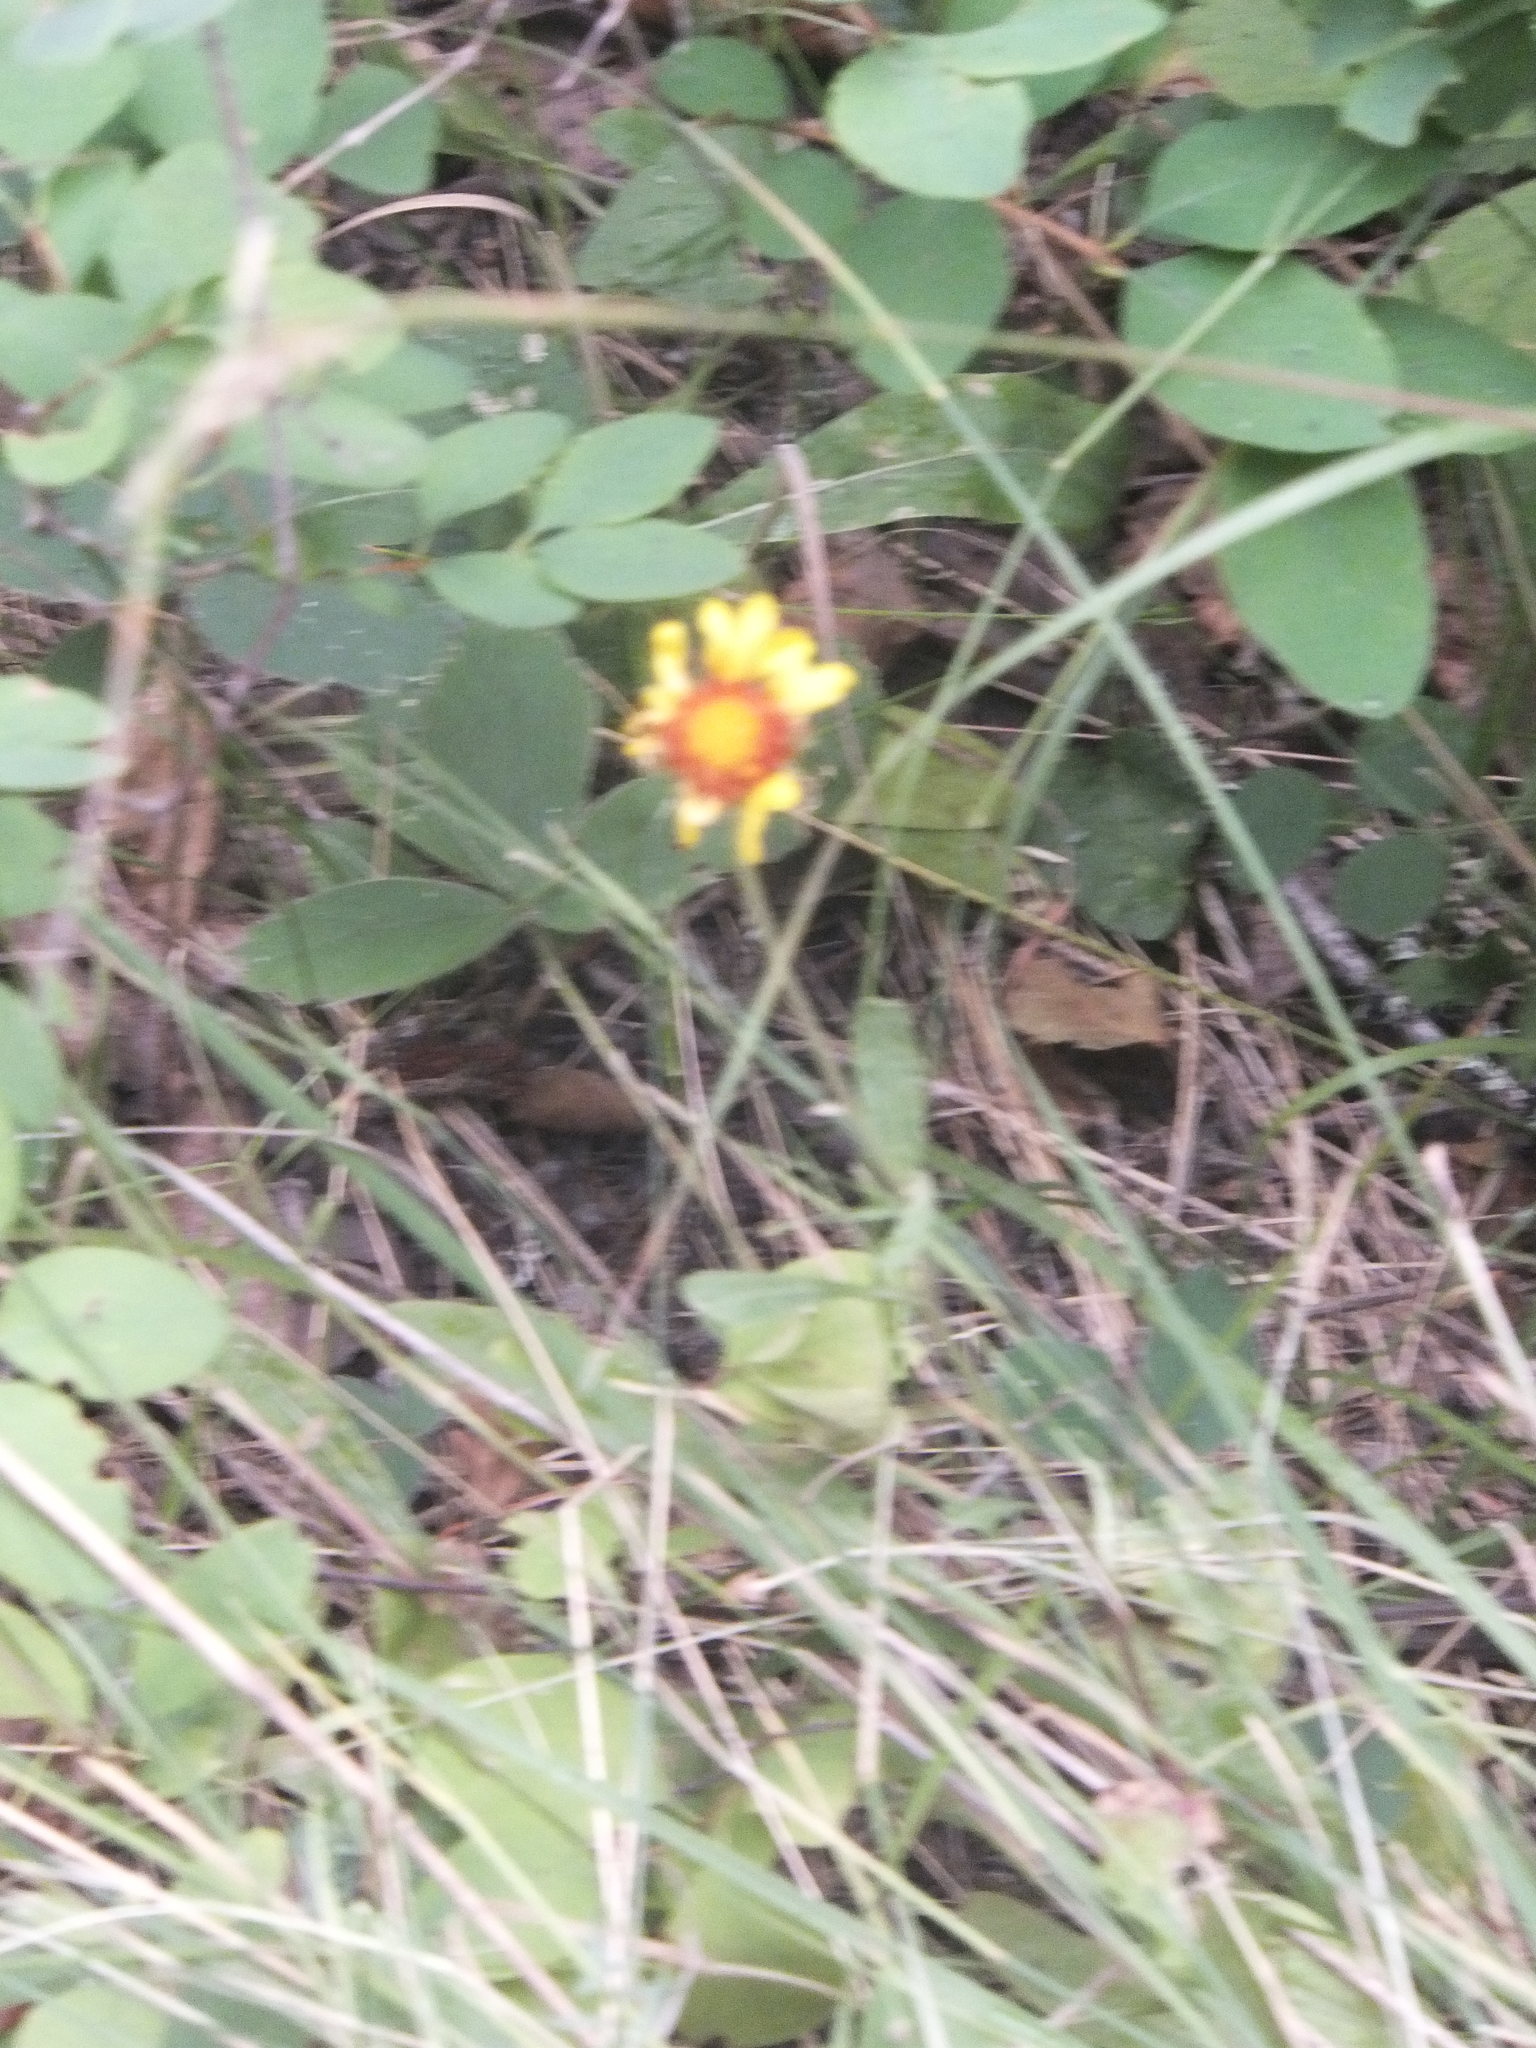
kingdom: Plantae
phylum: Tracheophyta
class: Magnoliopsida
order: Asterales
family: Asteraceae
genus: Gaillardia
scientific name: Gaillardia aristata
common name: Blanket-flower
